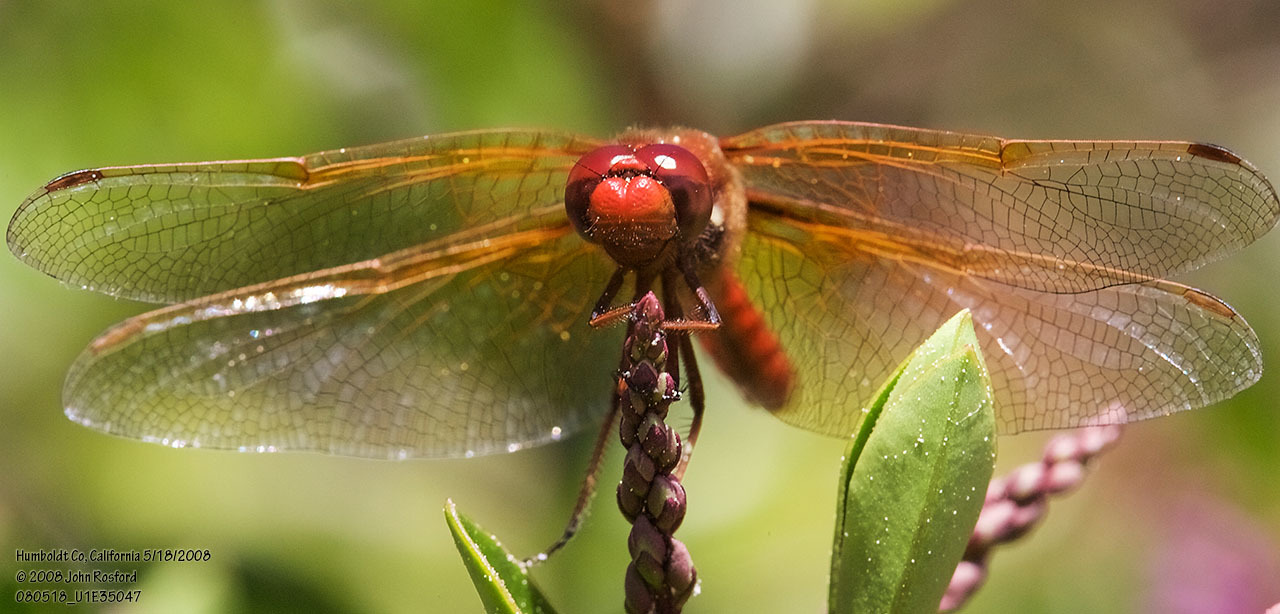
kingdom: Animalia
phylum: Arthropoda
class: Insecta
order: Odonata
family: Libellulidae
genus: Sympetrum
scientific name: Sympetrum illotum
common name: Cardinal meadowhawk
